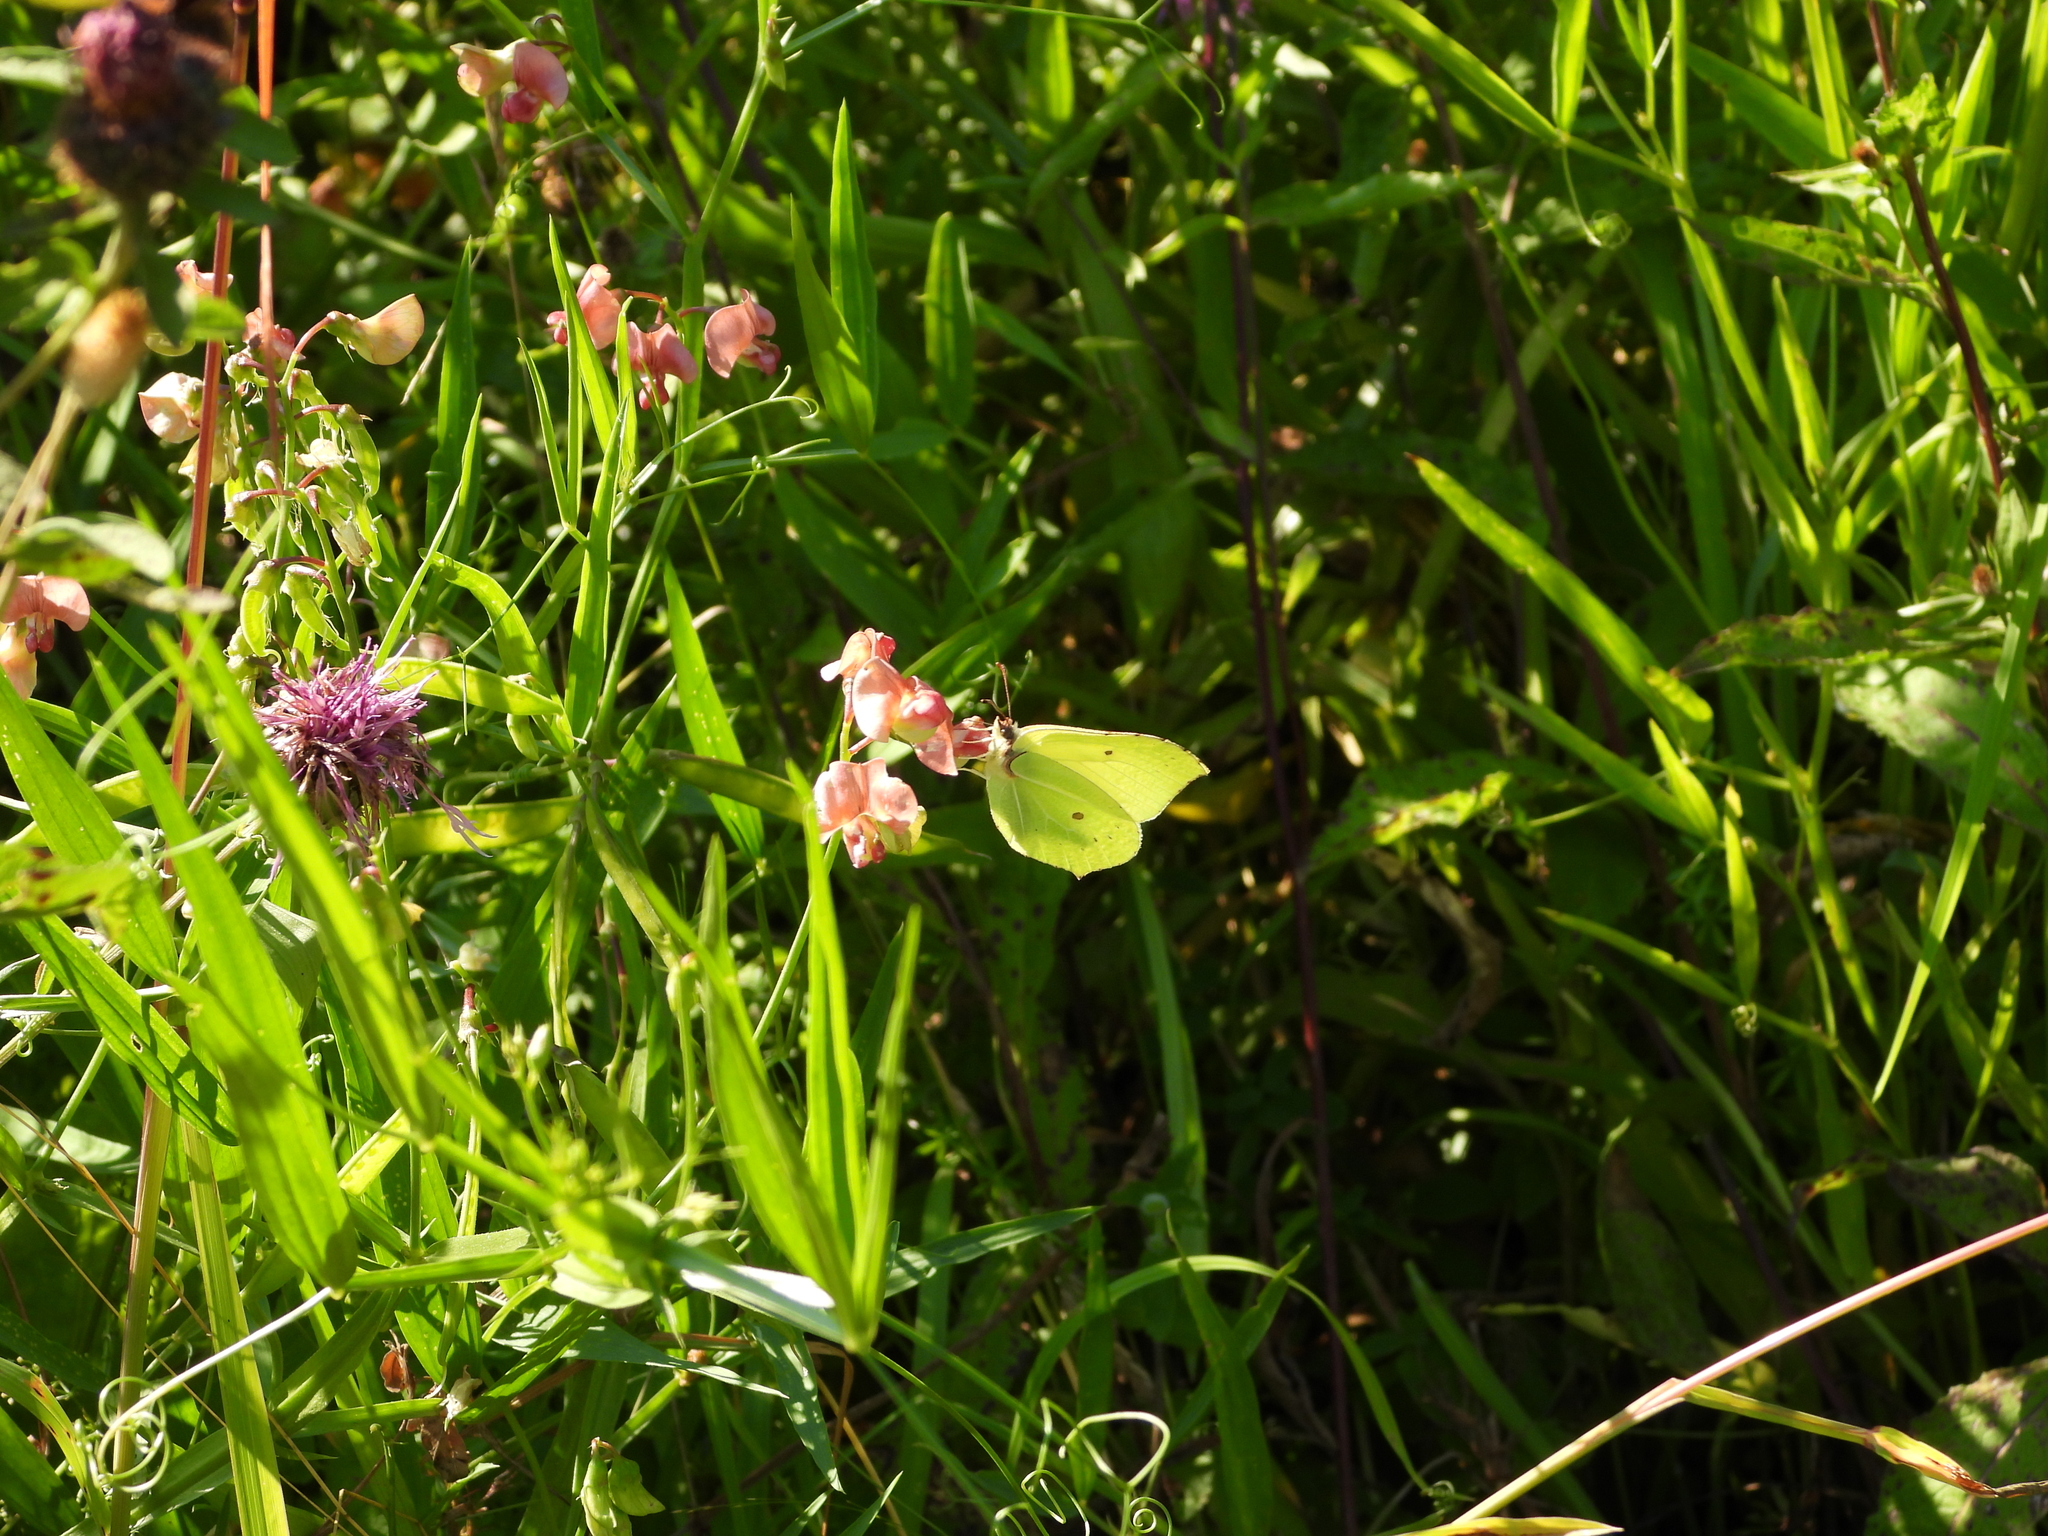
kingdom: Animalia
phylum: Arthropoda
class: Insecta
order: Lepidoptera
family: Pieridae
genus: Gonepteryx
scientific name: Gonepteryx rhamni
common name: Brimstone
